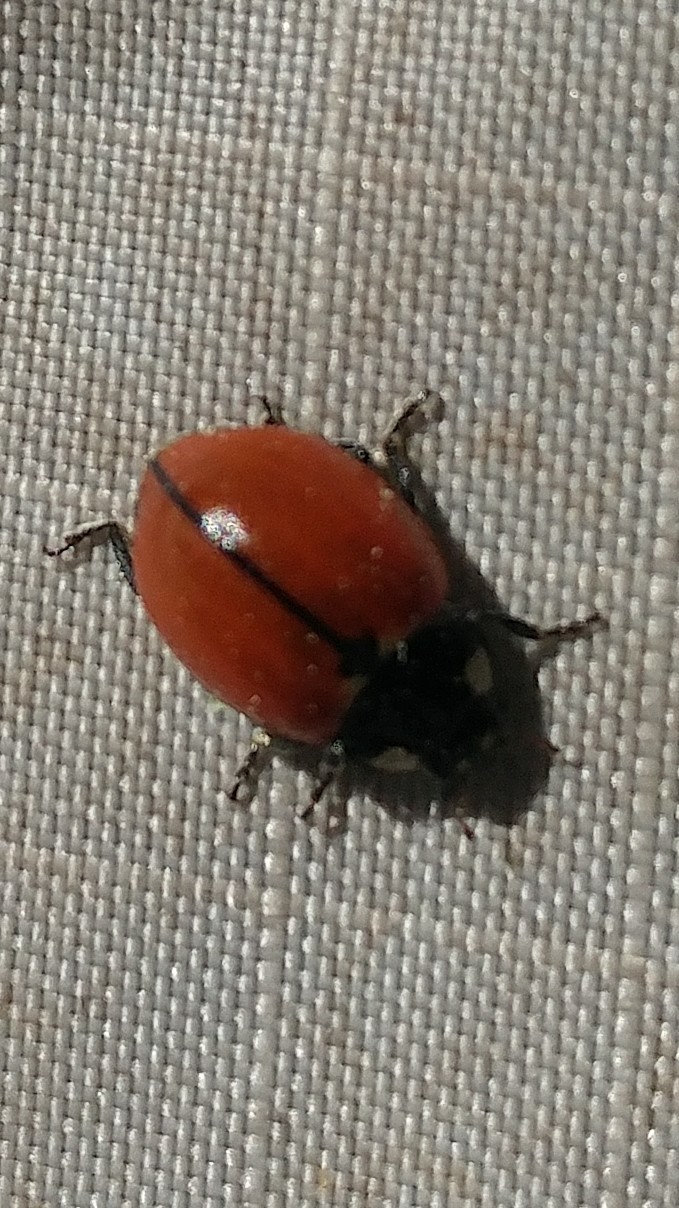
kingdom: Animalia
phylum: Arthropoda
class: Insecta
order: Coleoptera
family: Coccinellidae
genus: Coccinella
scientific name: Coccinella californica
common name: Lady beetle
